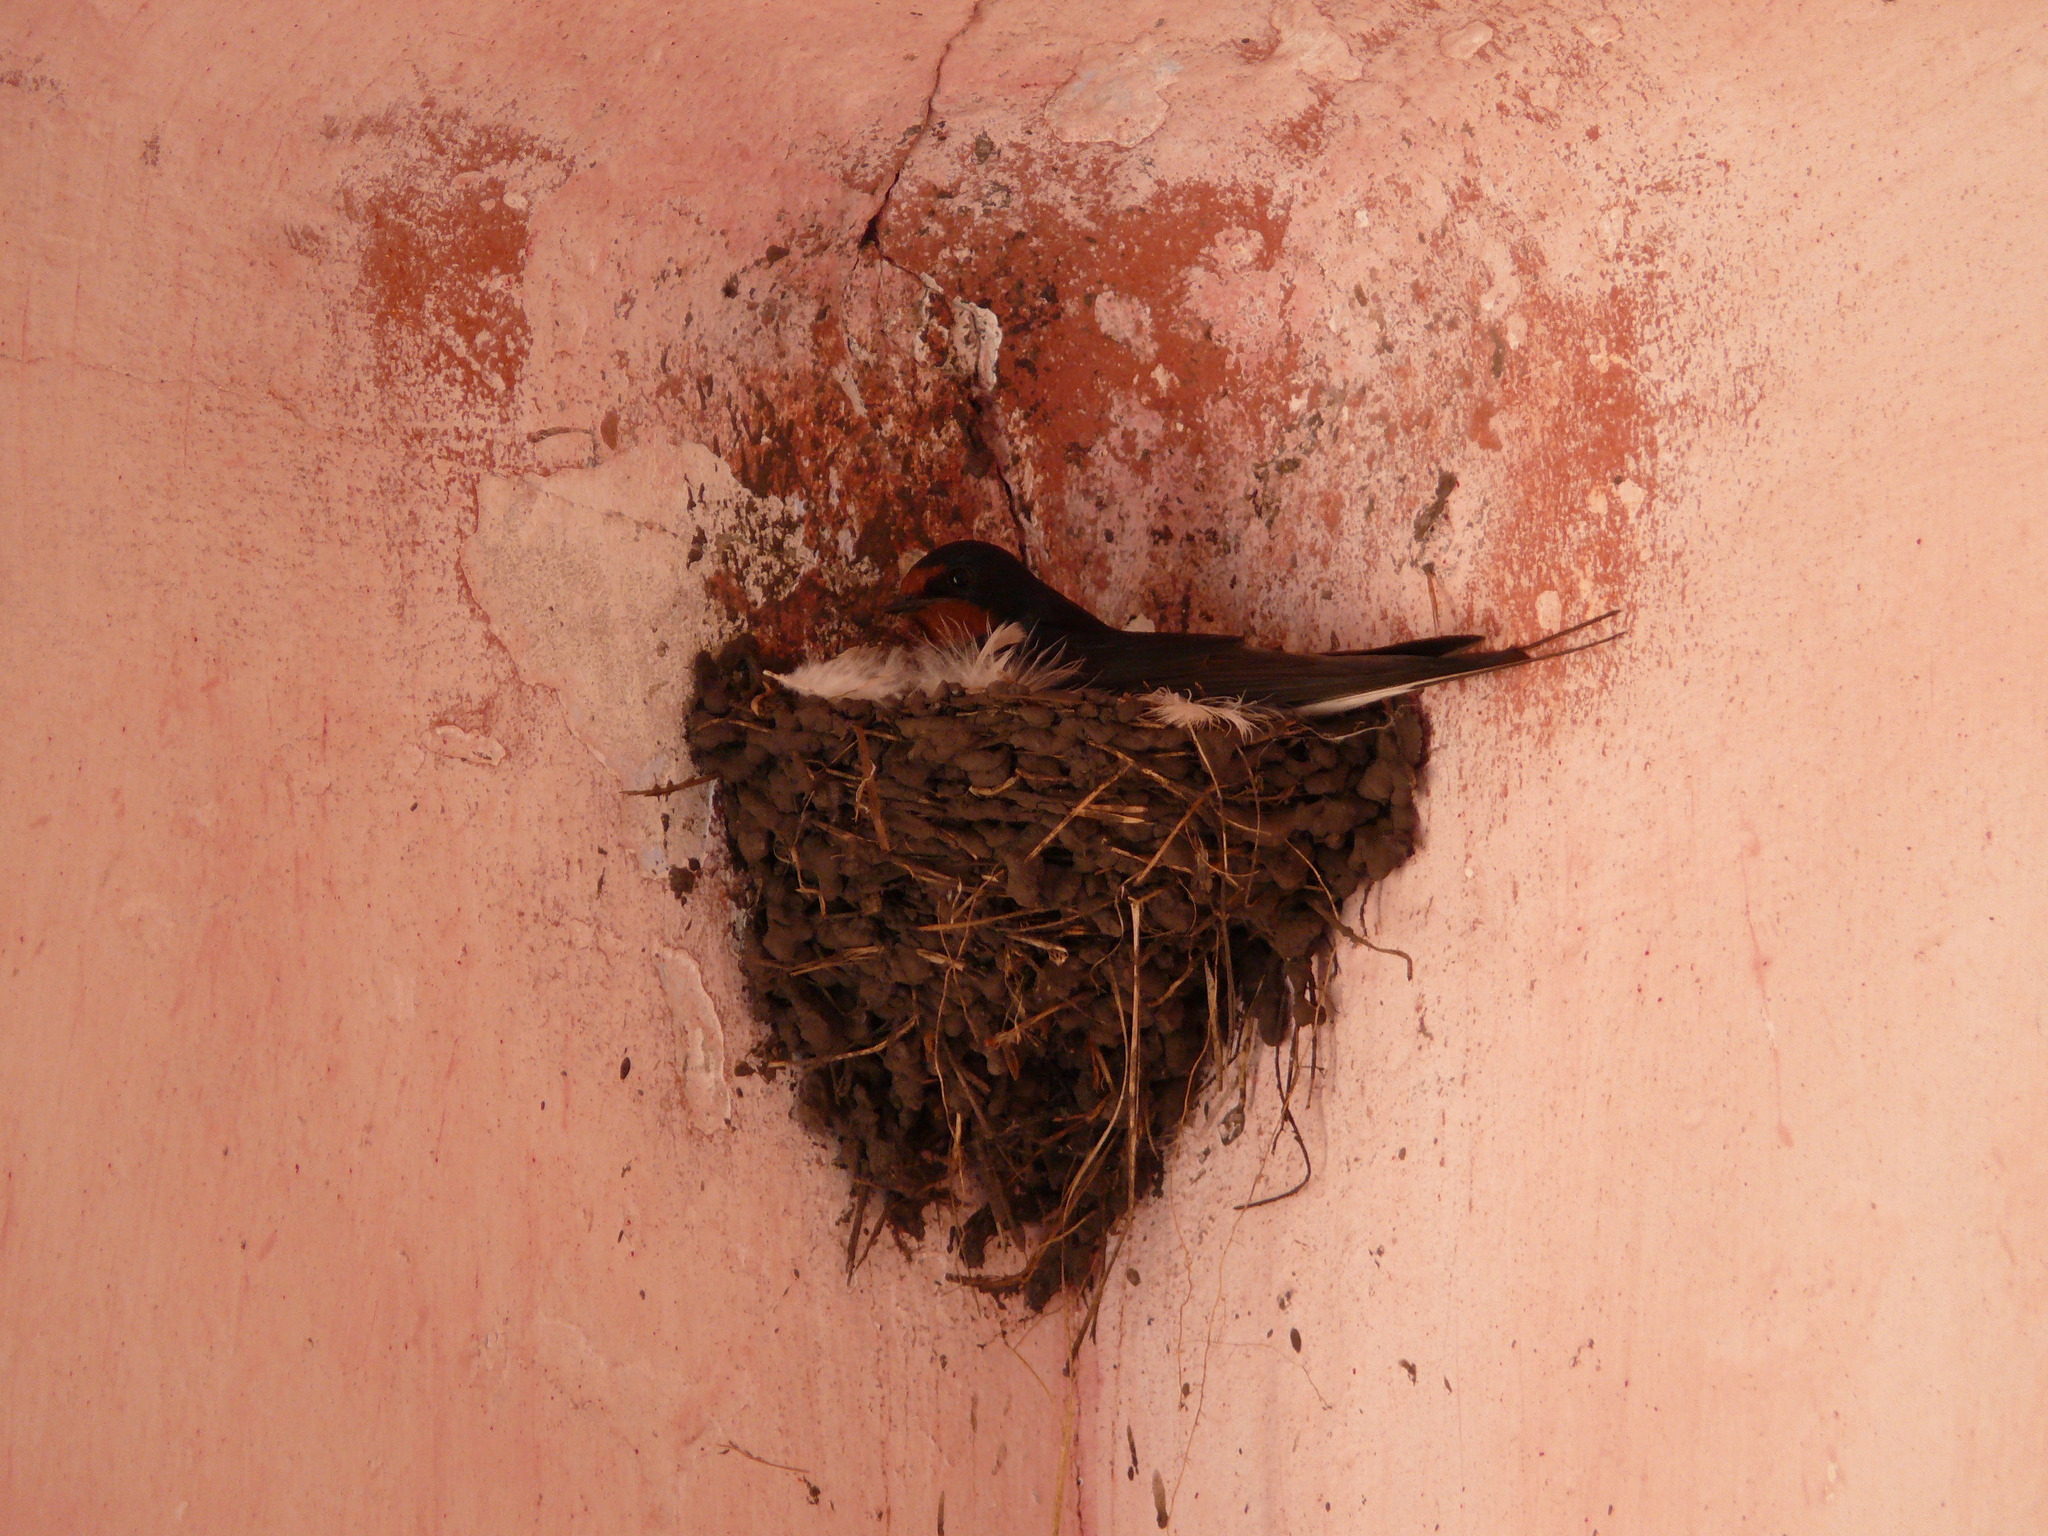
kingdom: Animalia
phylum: Chordata
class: Aves
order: Passeriformes
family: Hirundinidae
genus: Hirundo
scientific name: Hirundo rustica
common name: Barn swallow
